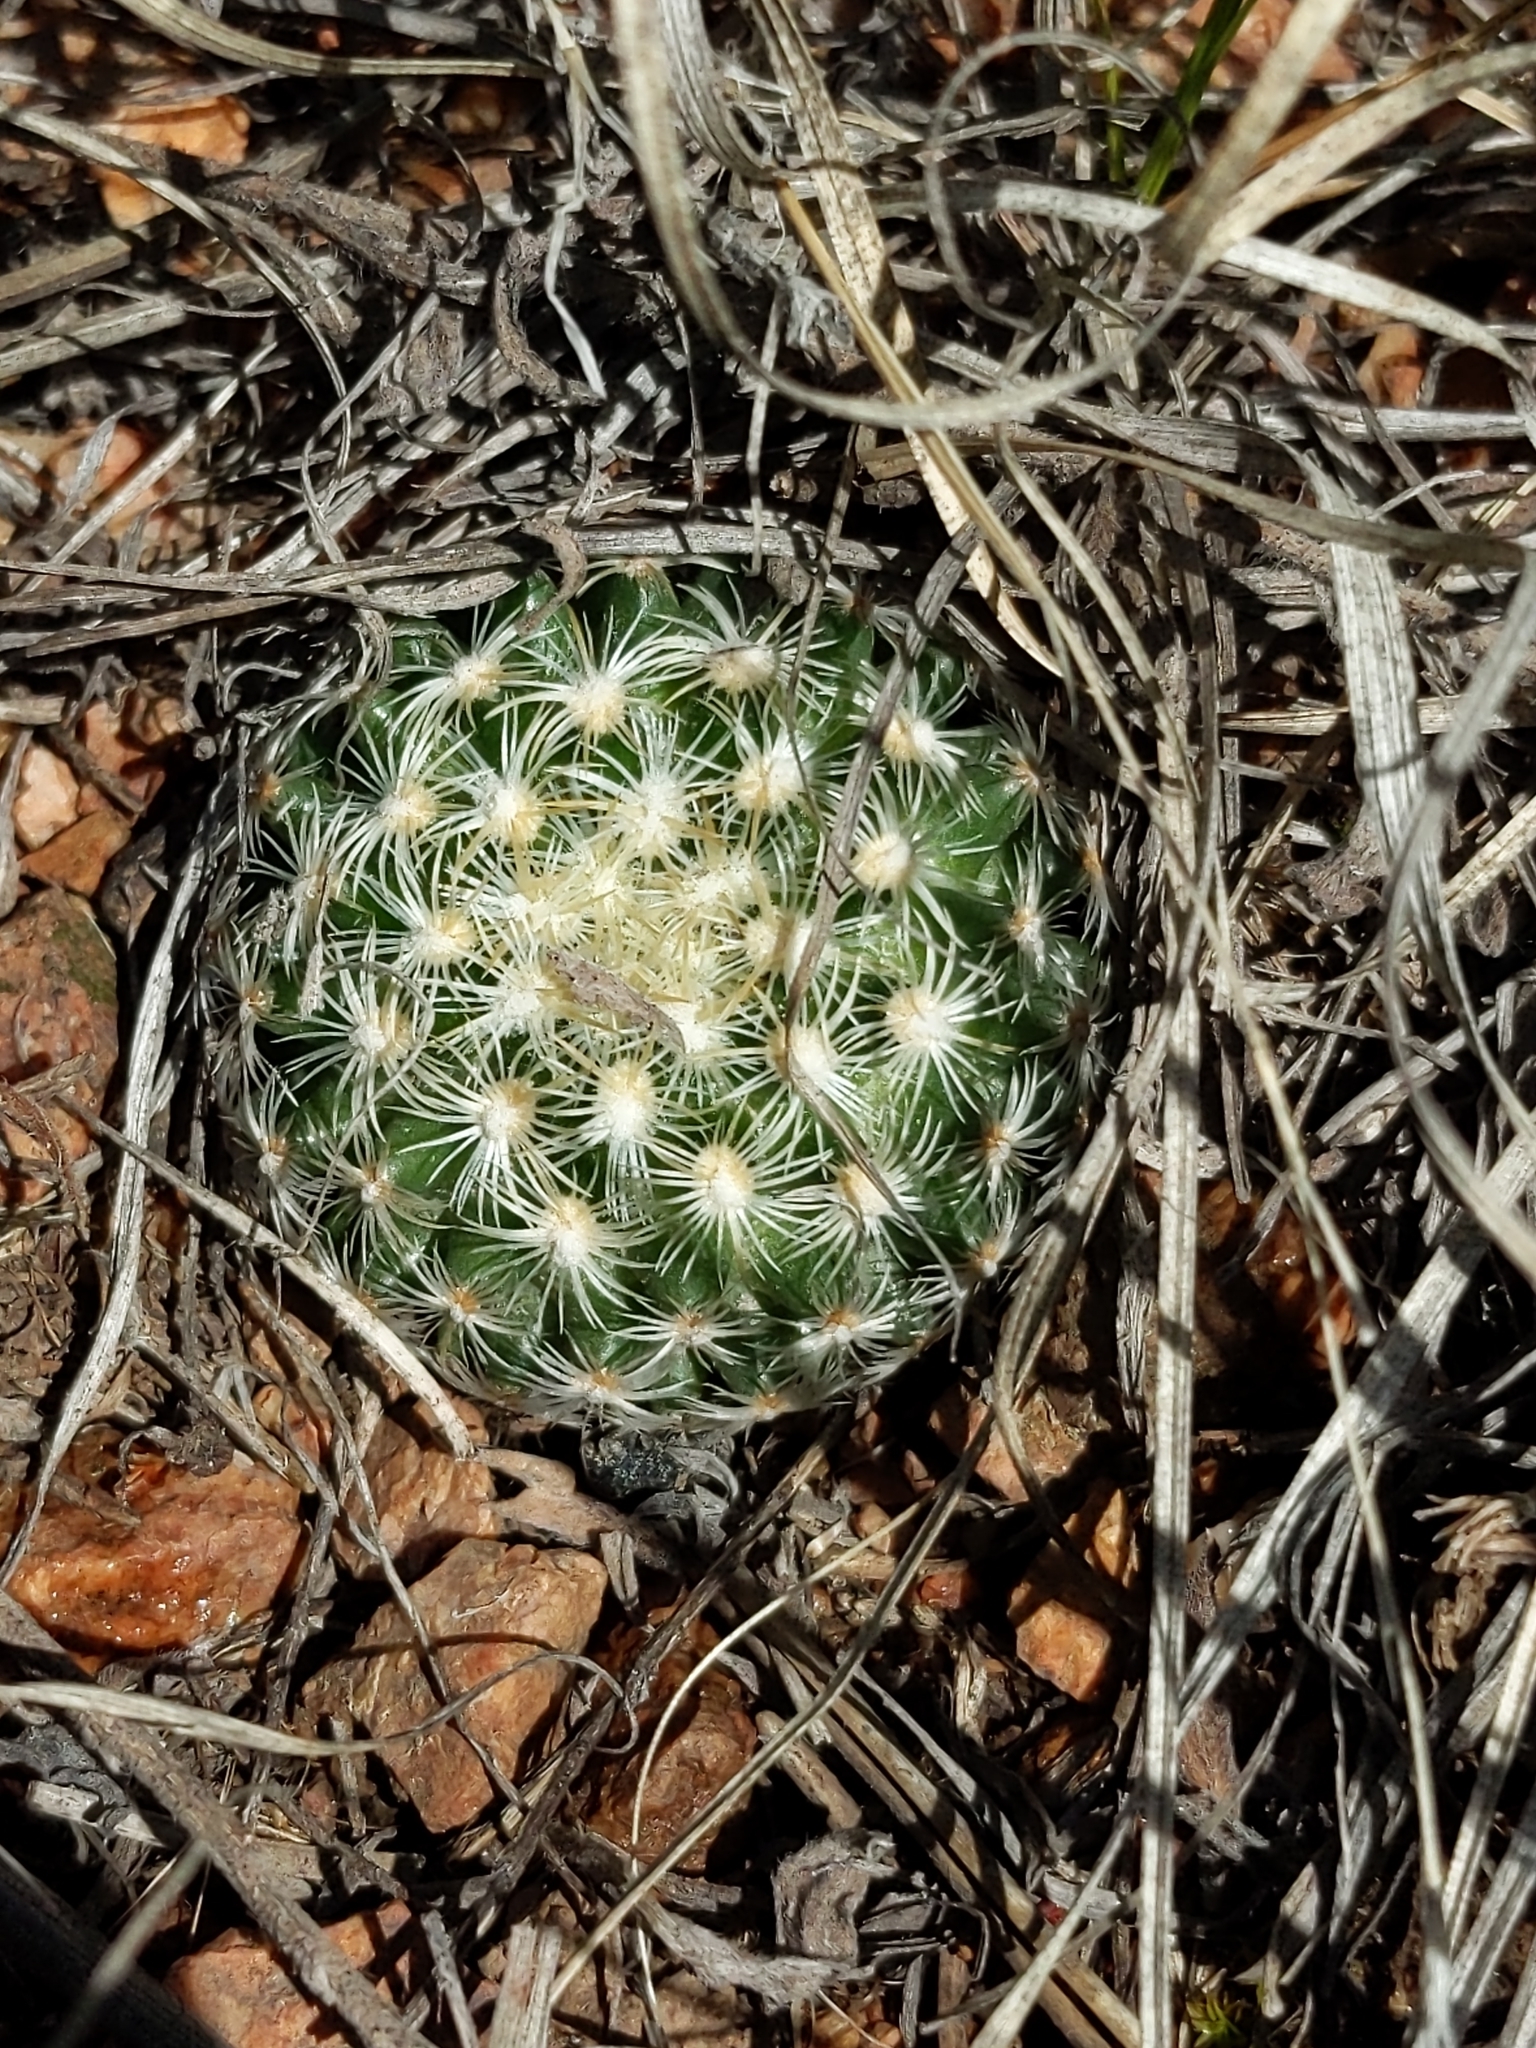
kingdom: Plantae
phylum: Tracheophyta
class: Magnoliopsida
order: Caryophyllales
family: Cactaceae
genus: Pediocactus
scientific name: Pediocactus simpsonii
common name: Simpson's hedgehog cactus
